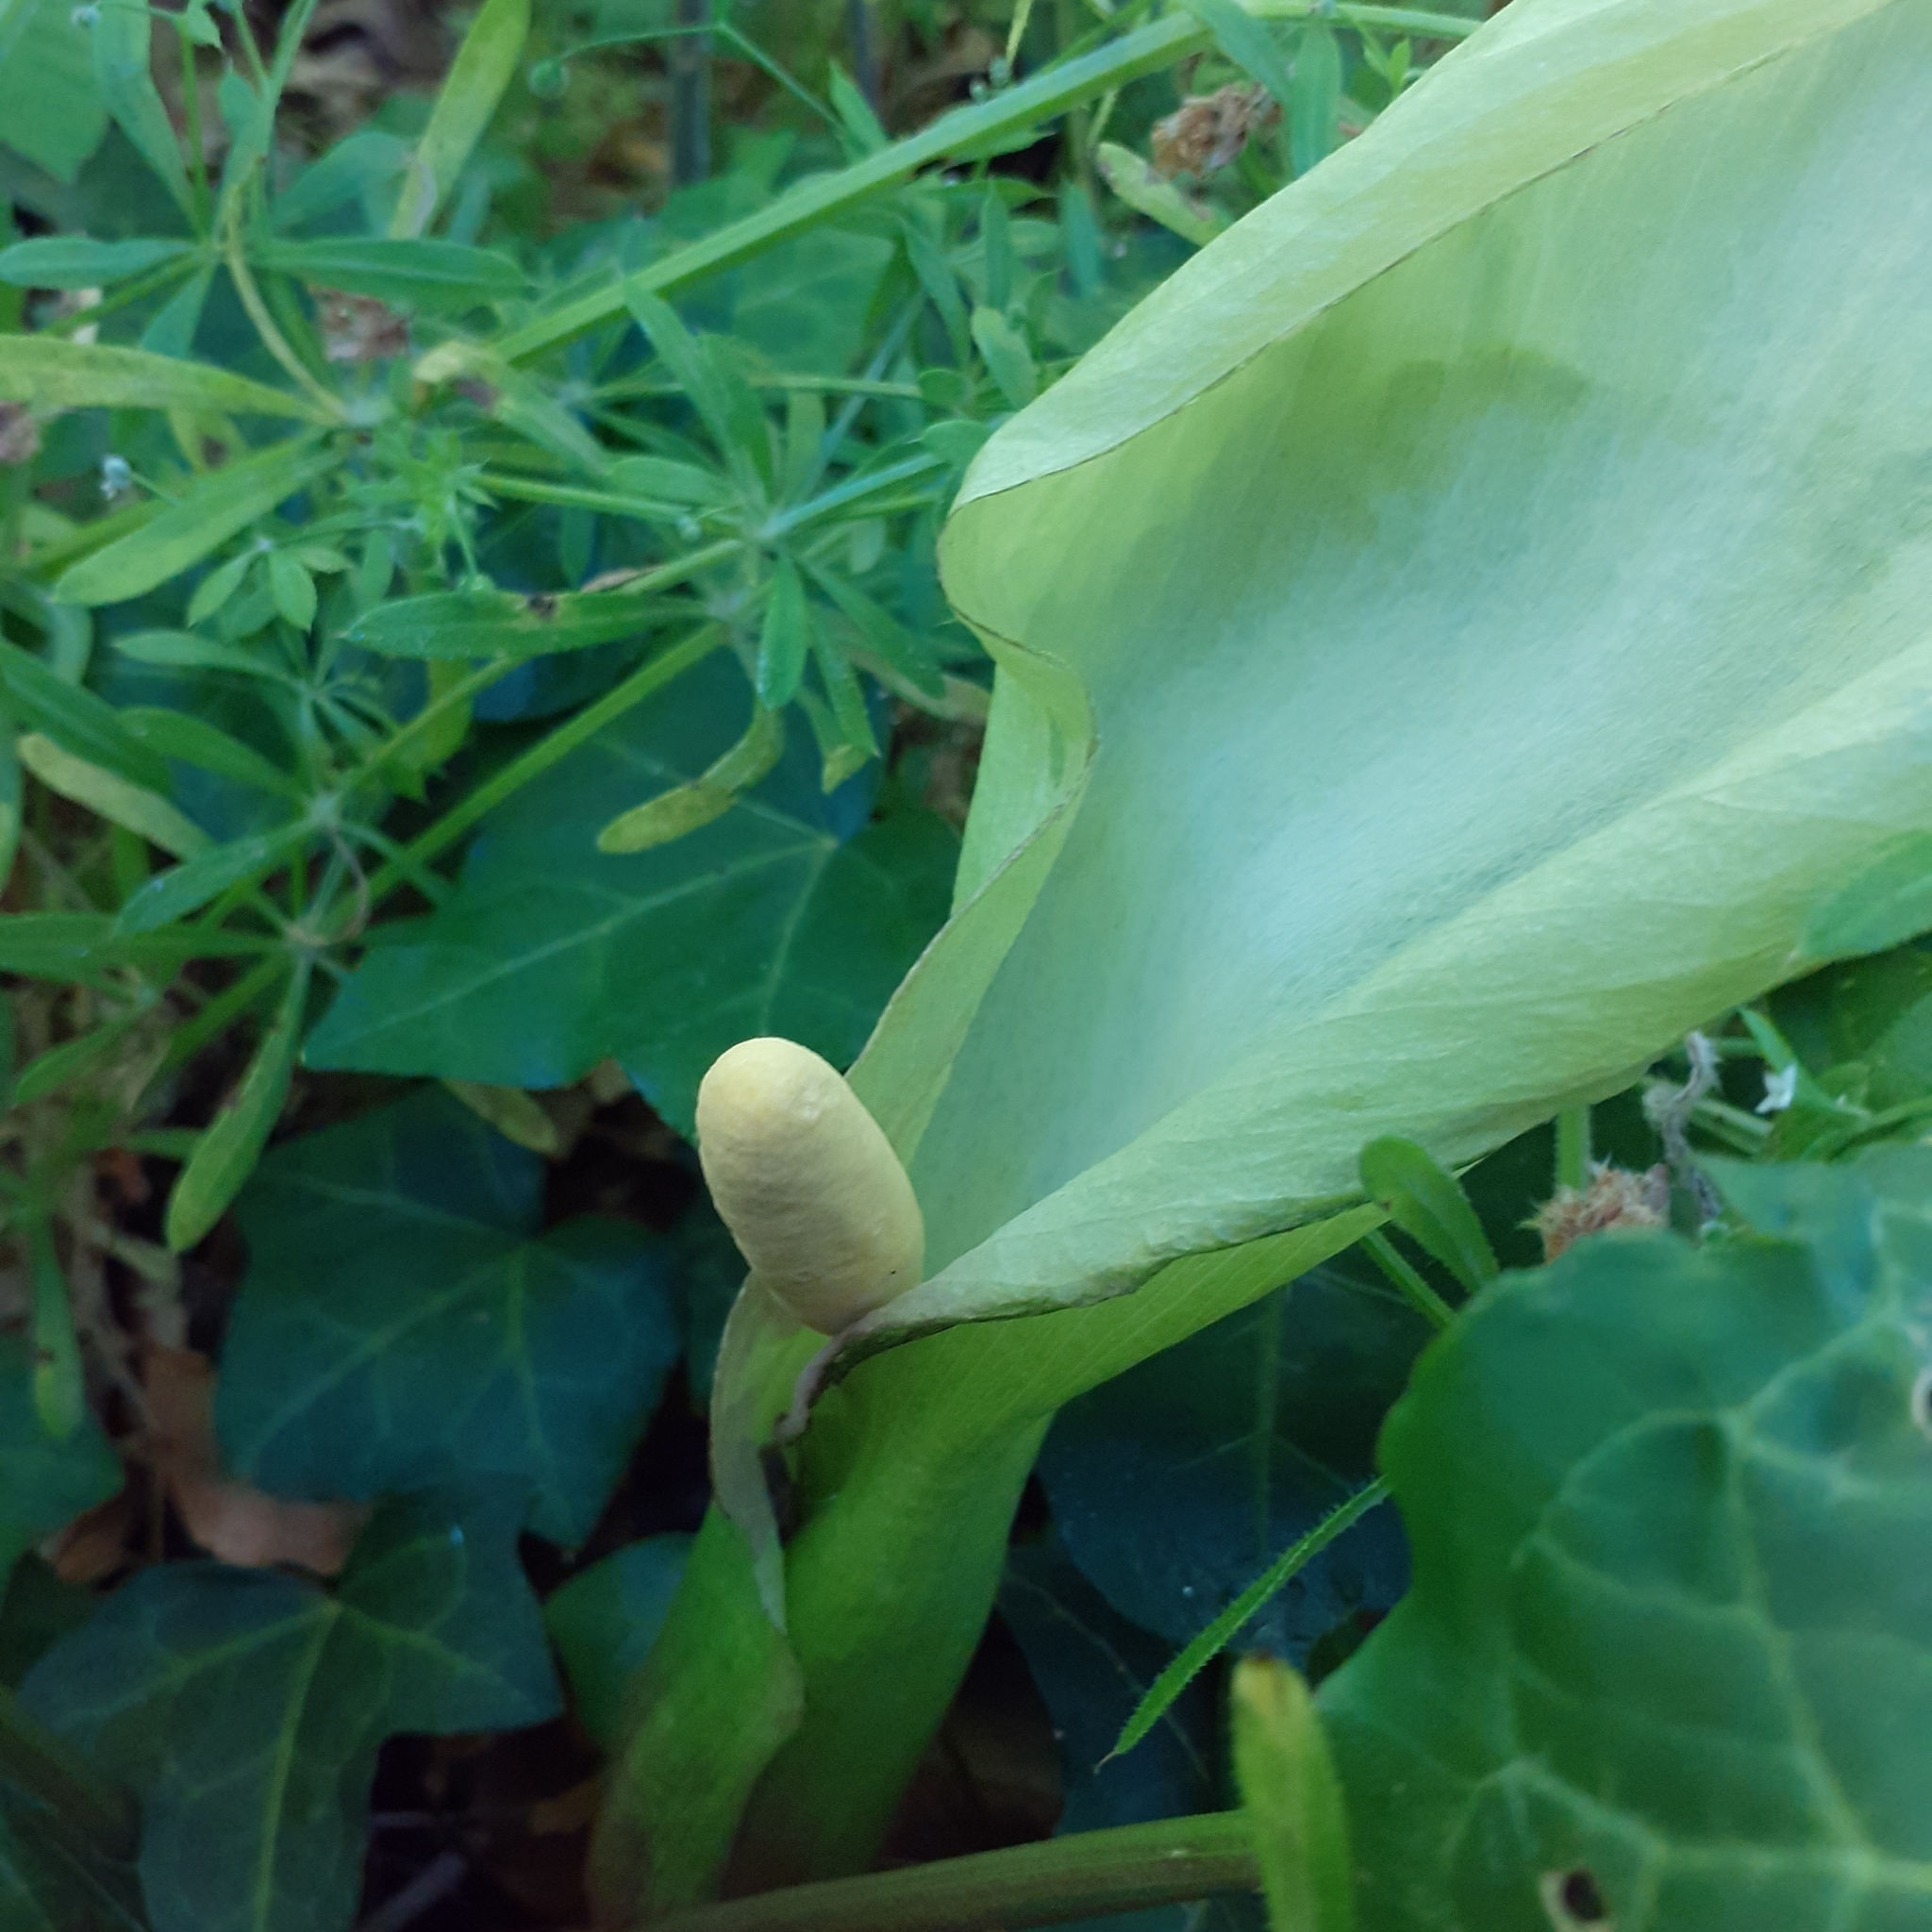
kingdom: Plantae
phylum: Tracheophyta
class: Liliopsida
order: Alismatales
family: Araceae
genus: Arum
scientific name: Arum italicum
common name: Italian lords-and-ladies
